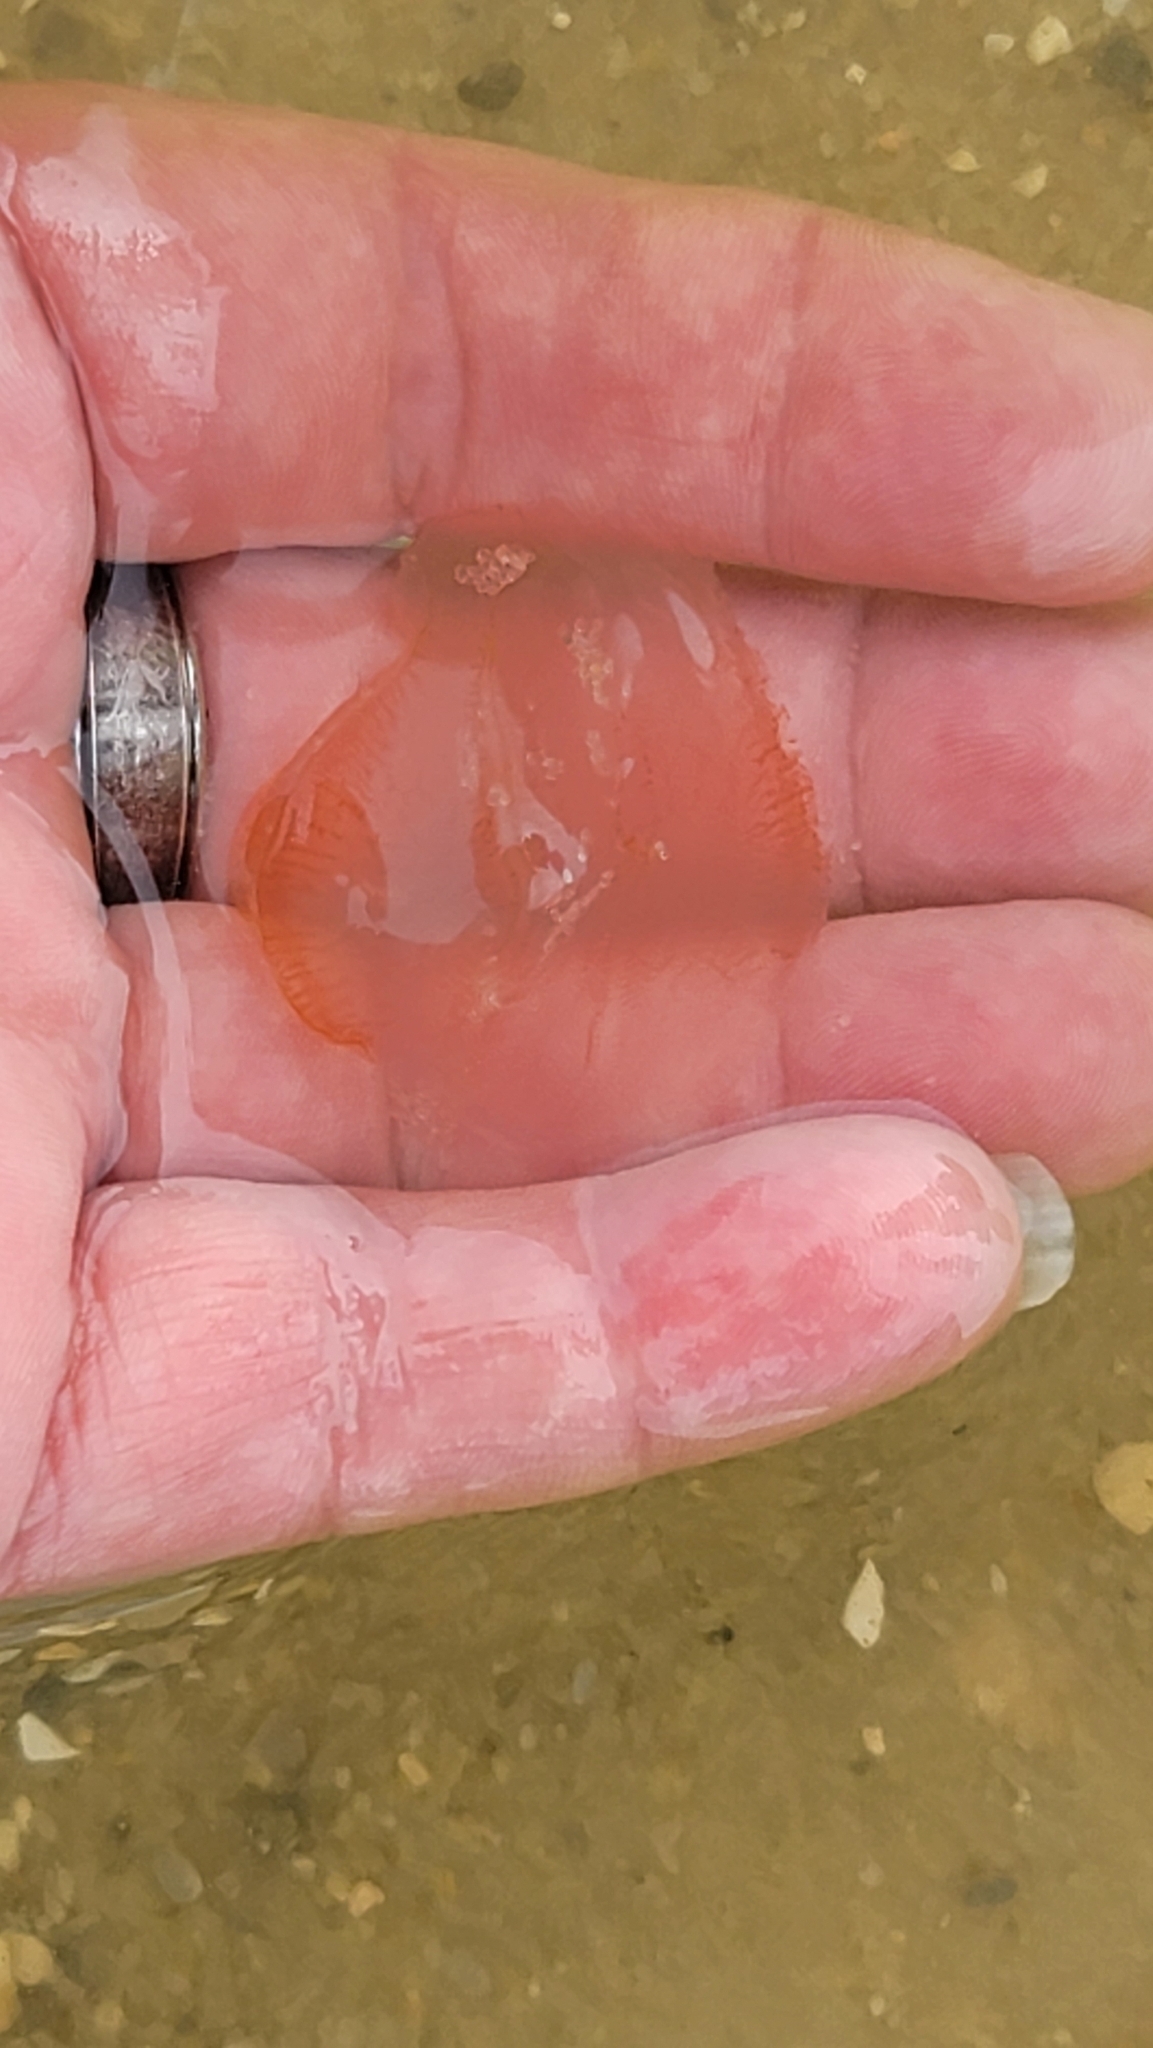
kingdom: Animalia
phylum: Ctenophora
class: Nuda
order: Beroida
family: Beroidae
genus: Beroe
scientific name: Beroe ovata
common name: Flattened helmet comb jelly
